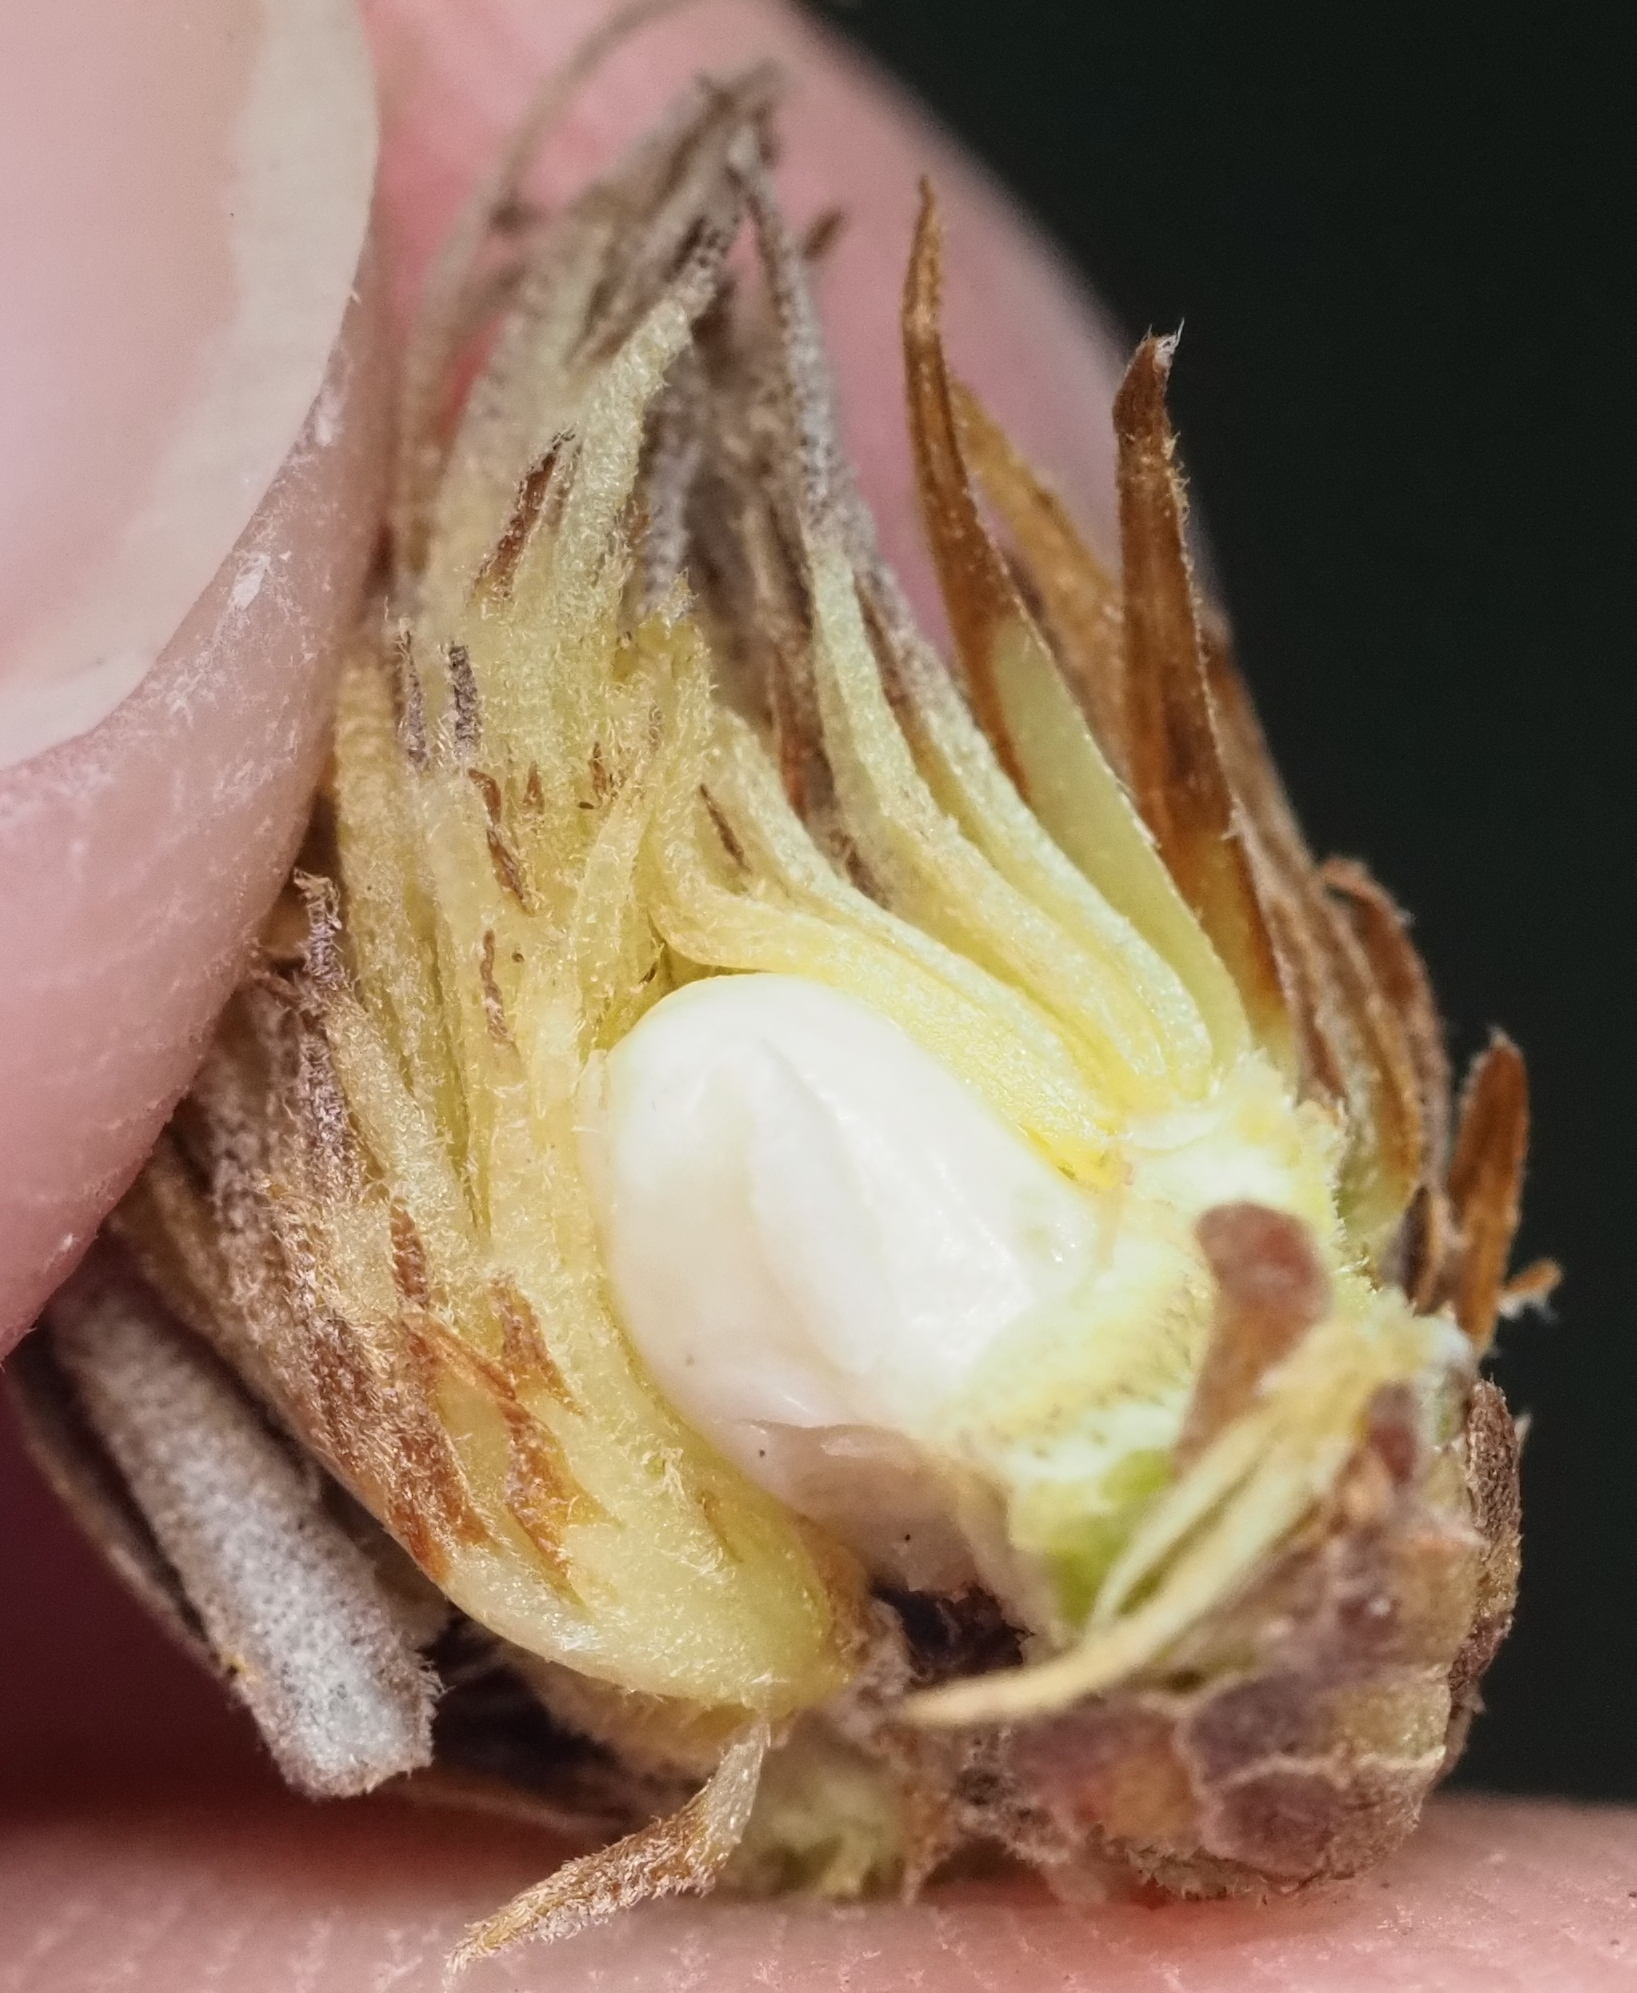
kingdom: Animalia
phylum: Arthropoda
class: Insecta
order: Hymenoptera
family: Cynipidae
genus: Andricus
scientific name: Andricus quercusfoliatus
